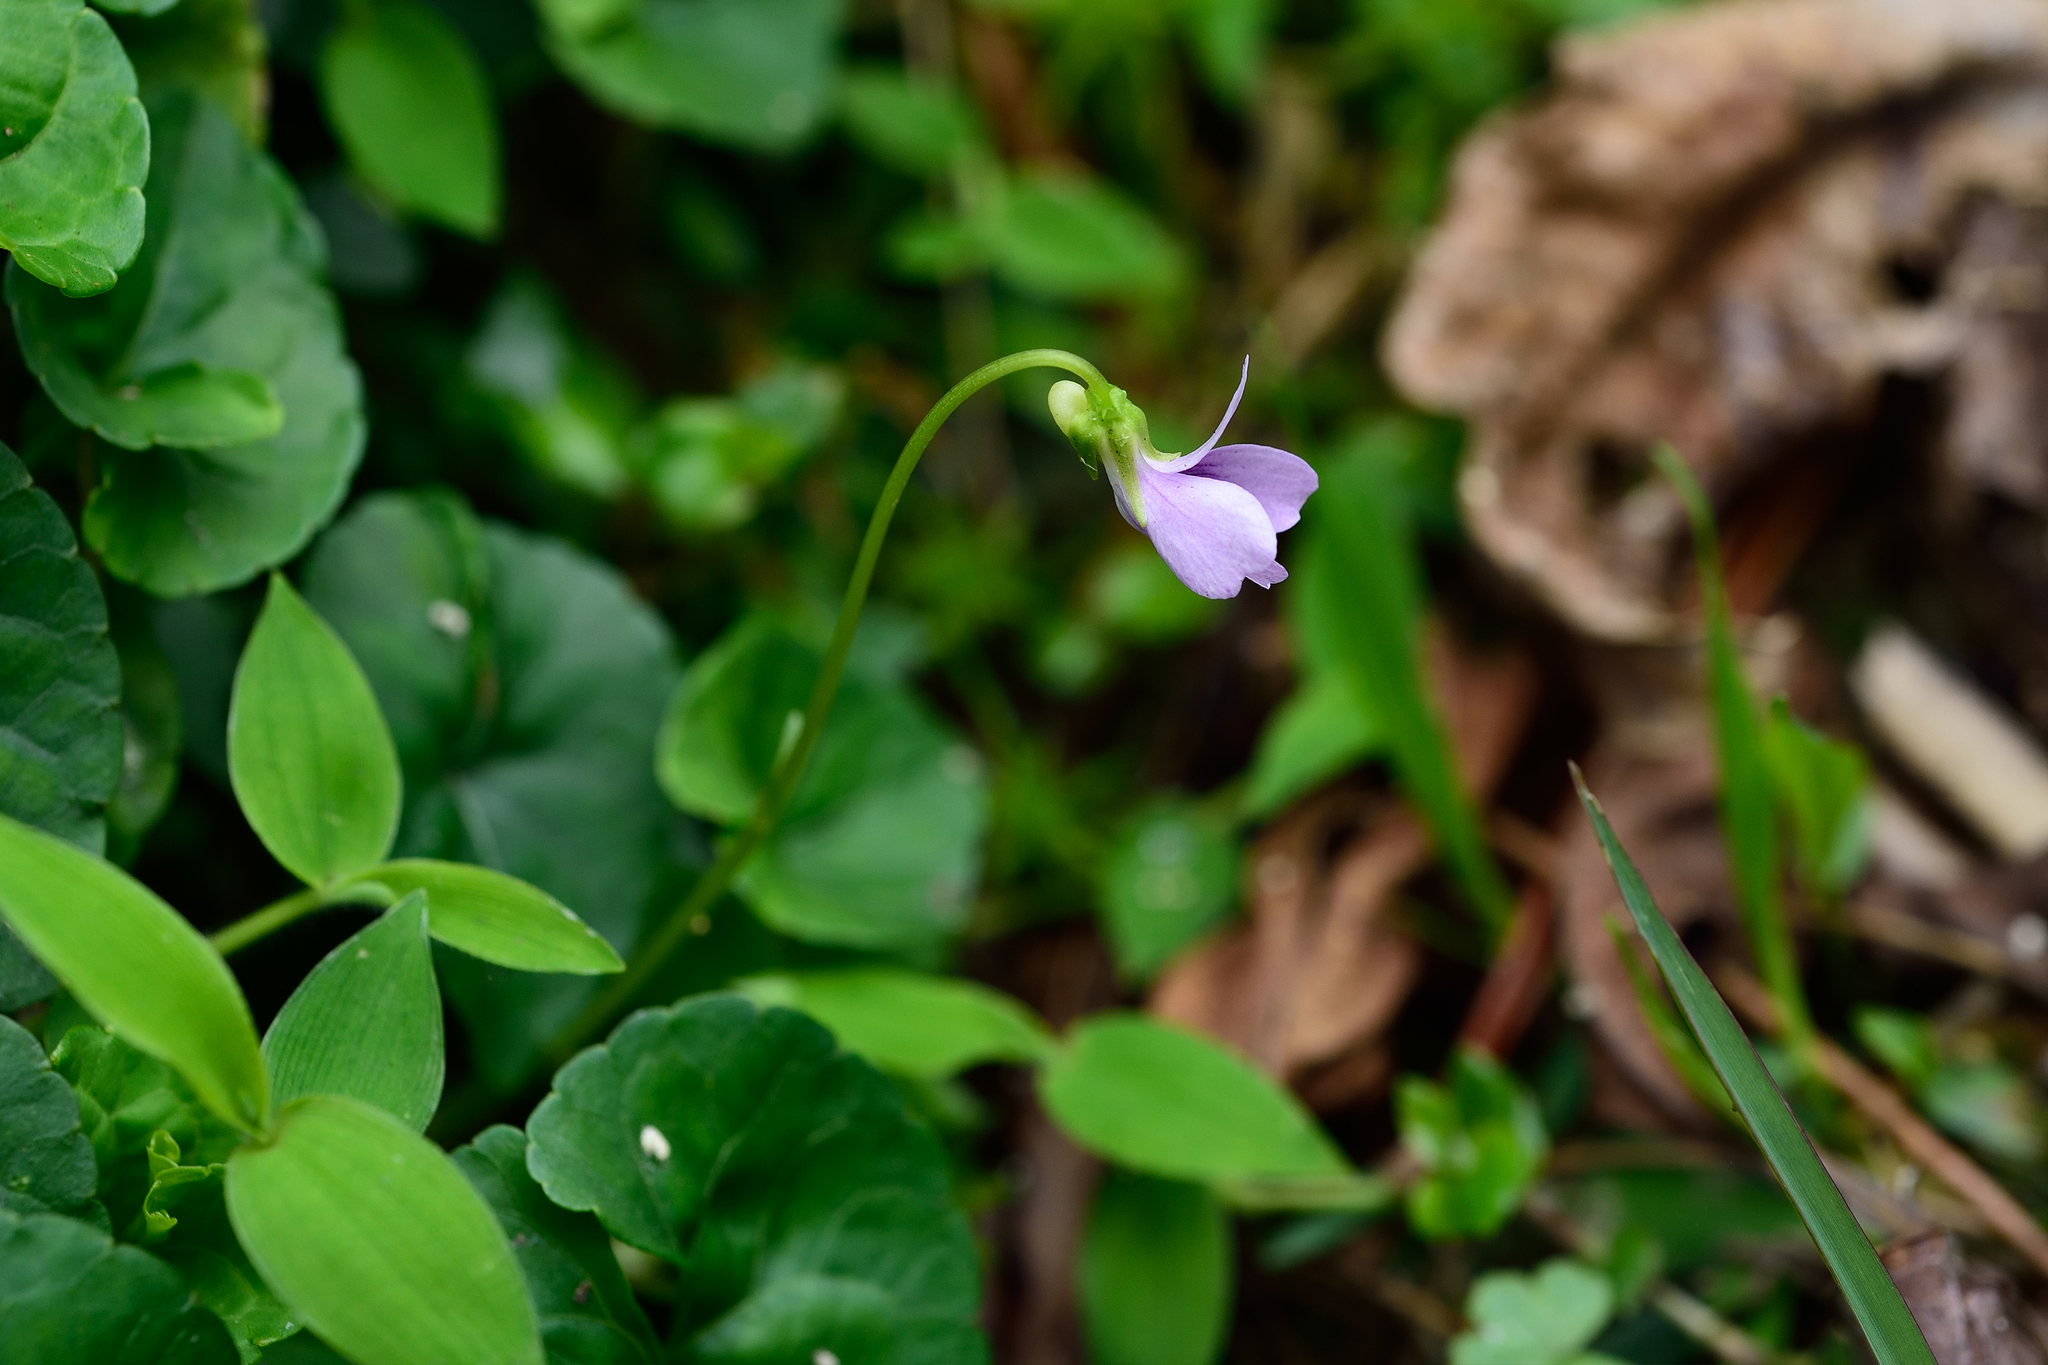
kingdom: Plantae
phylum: Tracheophyta
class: Magnoliopsida
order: Malpighiales
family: Violaceae
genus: Viola
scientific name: Viola
